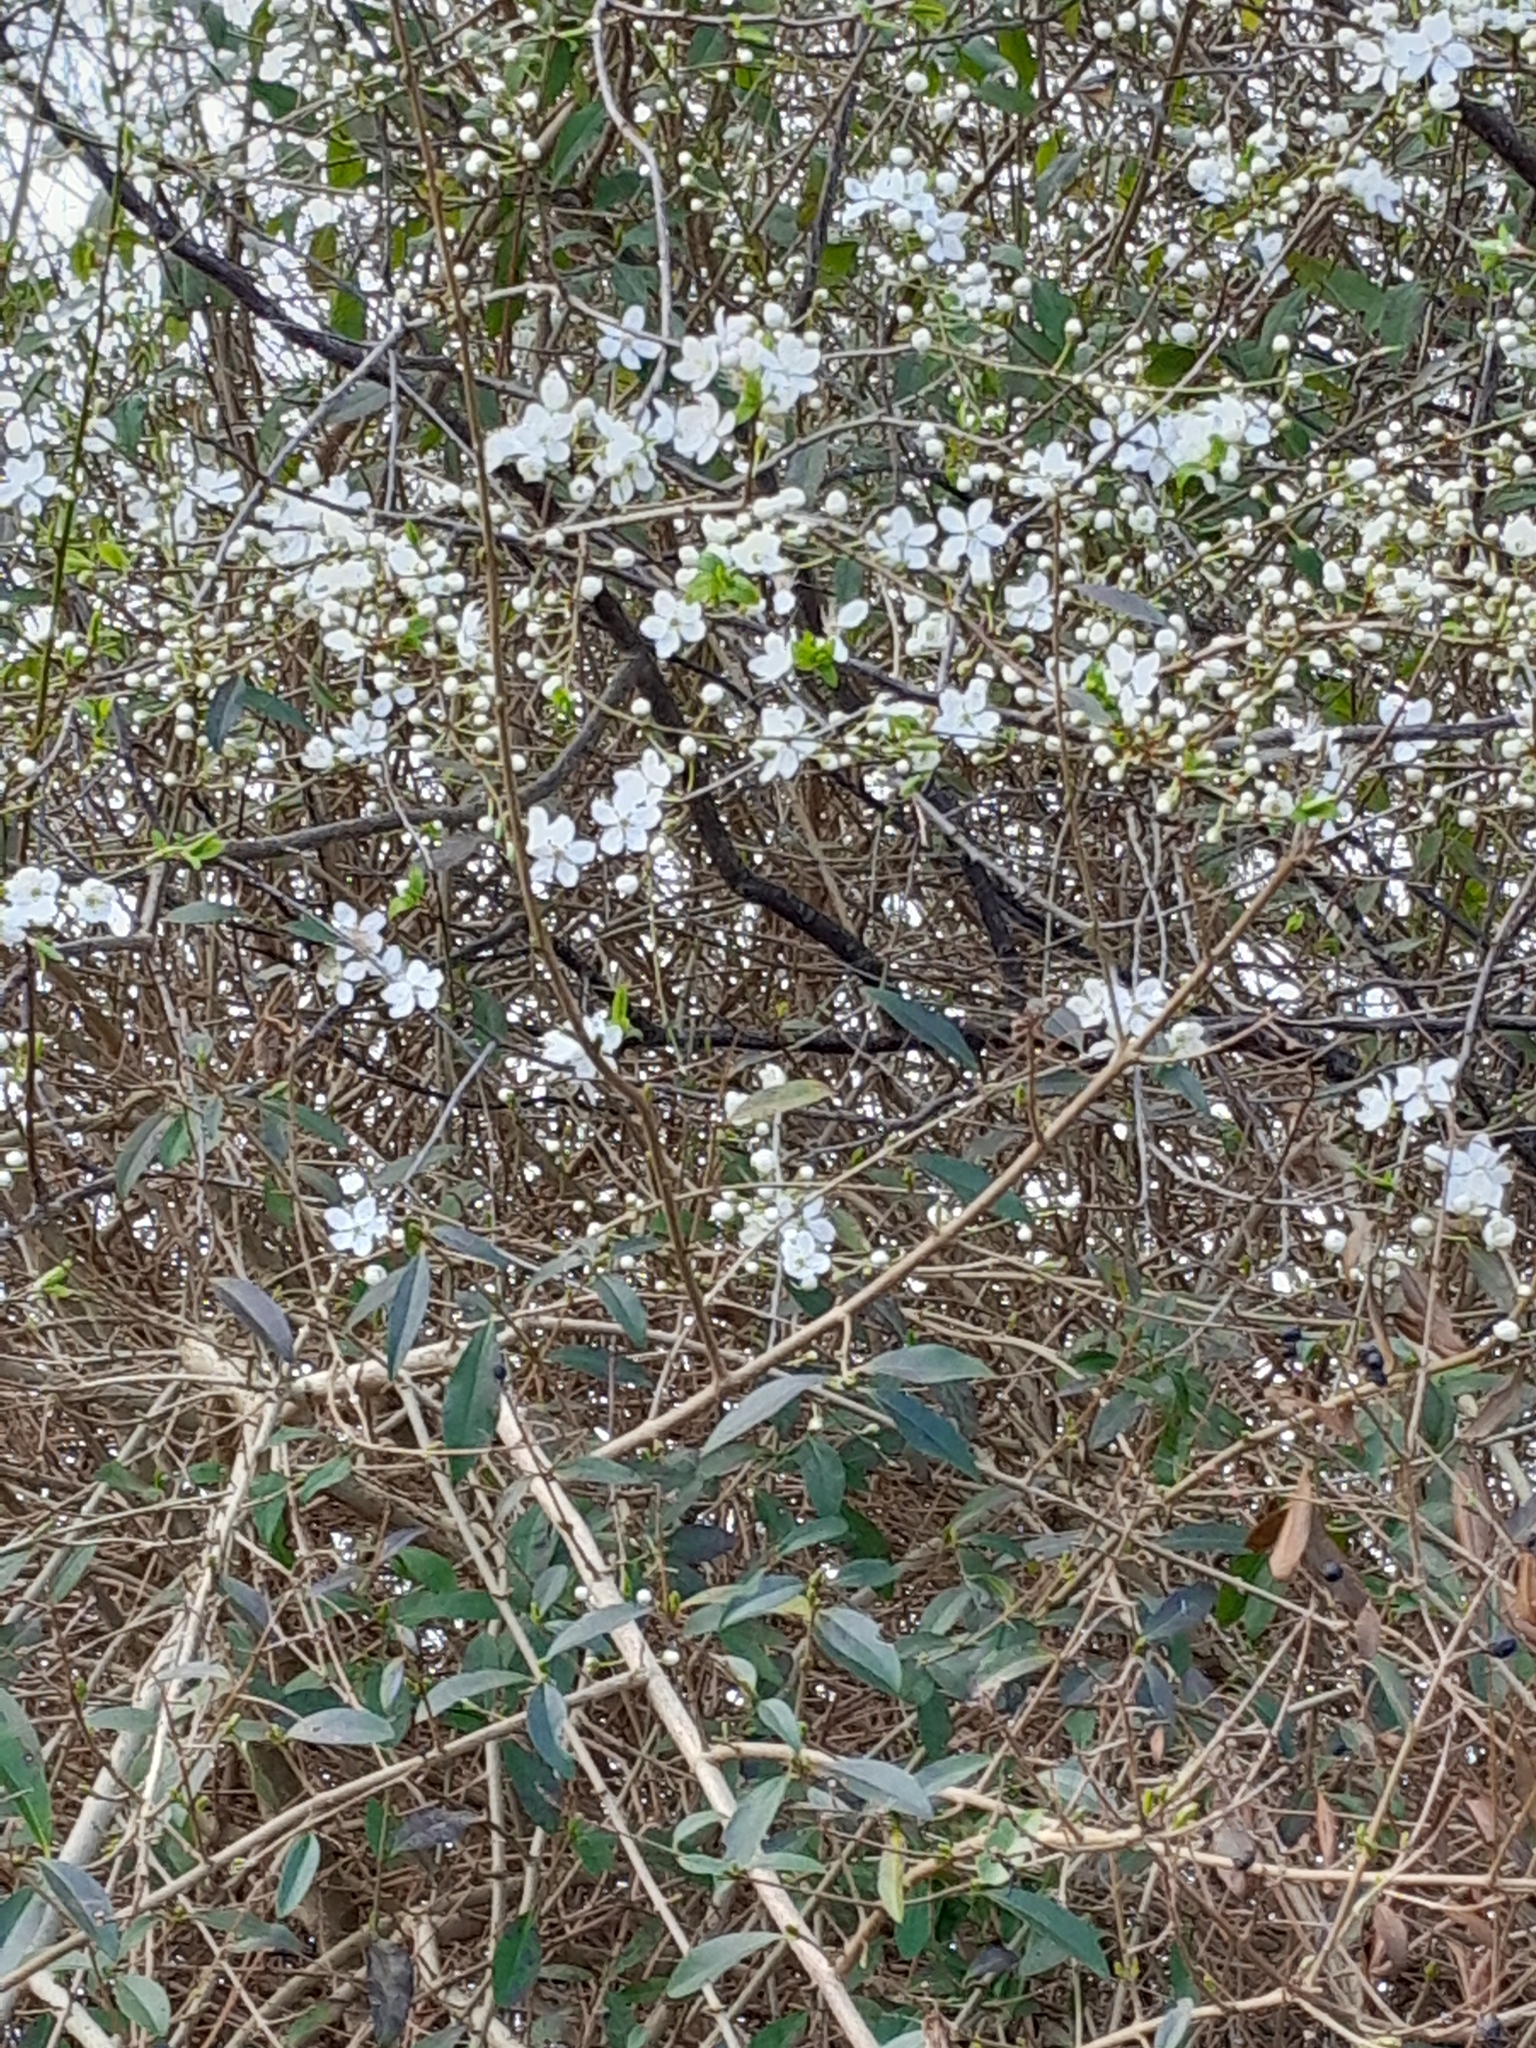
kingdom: Plantae
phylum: Tracheophyta
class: Magnoliopsida
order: Rosales
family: Rosaceae
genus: Prunus
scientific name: Prunus cerasifera
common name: Cherry plum
